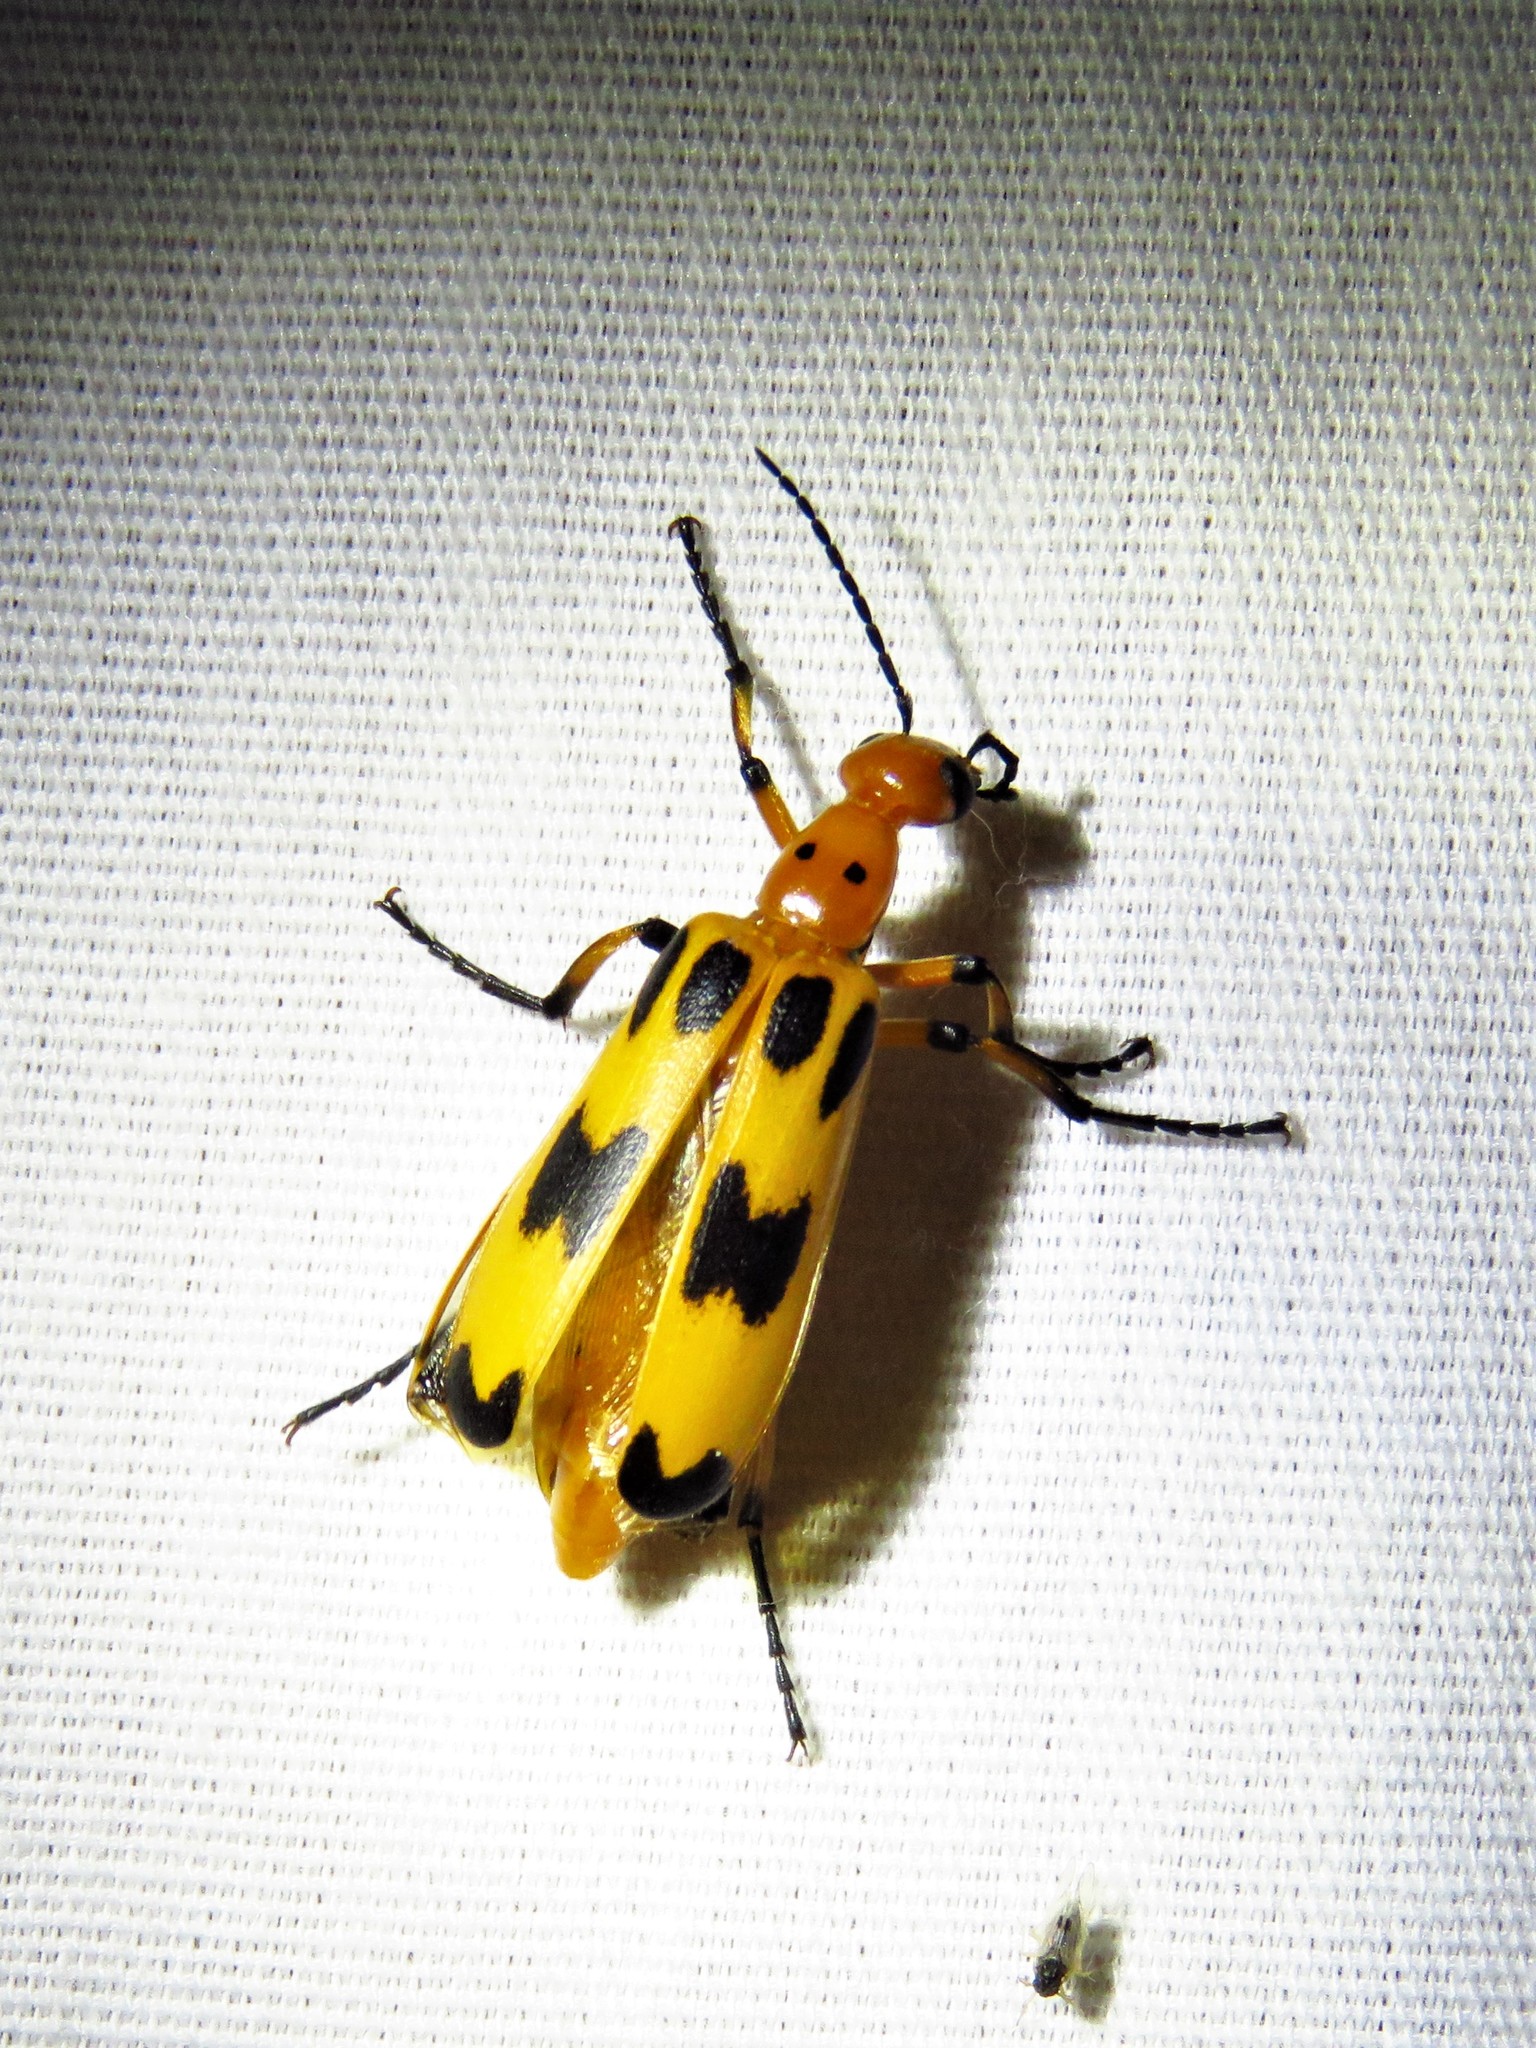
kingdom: Animalia
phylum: Arthropoda
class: Insecta
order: Coleoptera
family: Meloidae
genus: Pyrota
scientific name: Pyrota fasciata
